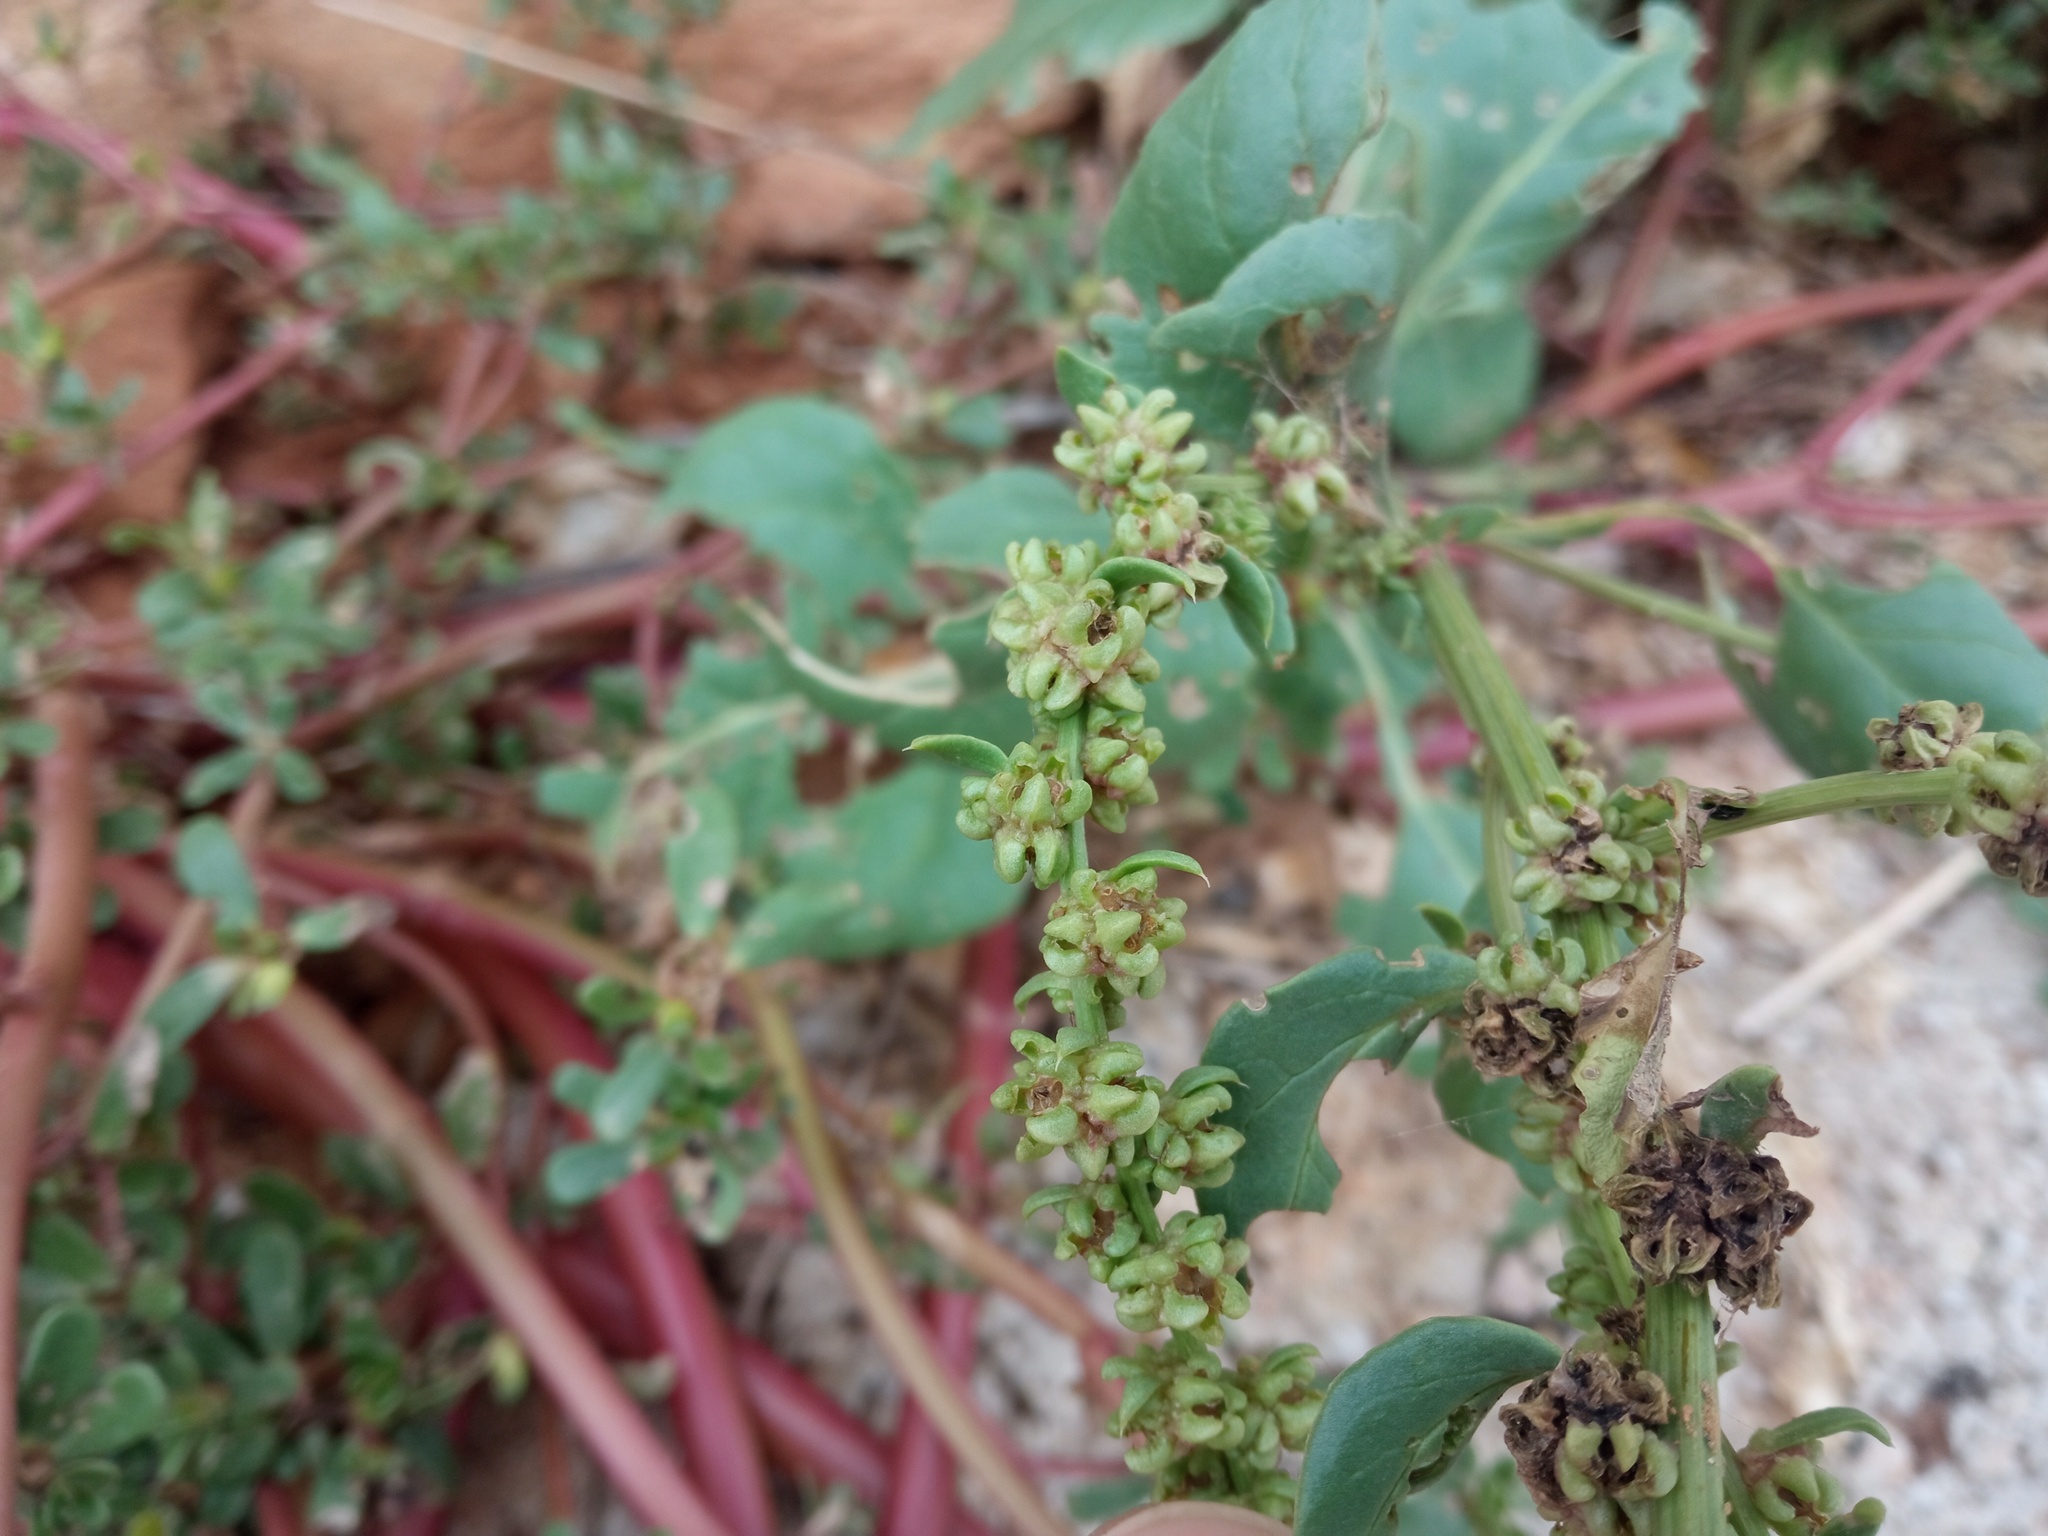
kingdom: Plantae
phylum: Tracheophyta
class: Magnoliopsida
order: Caryophyllales
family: Amaranthaceae
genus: Beta
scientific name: Beta vulgaris
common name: Beet
